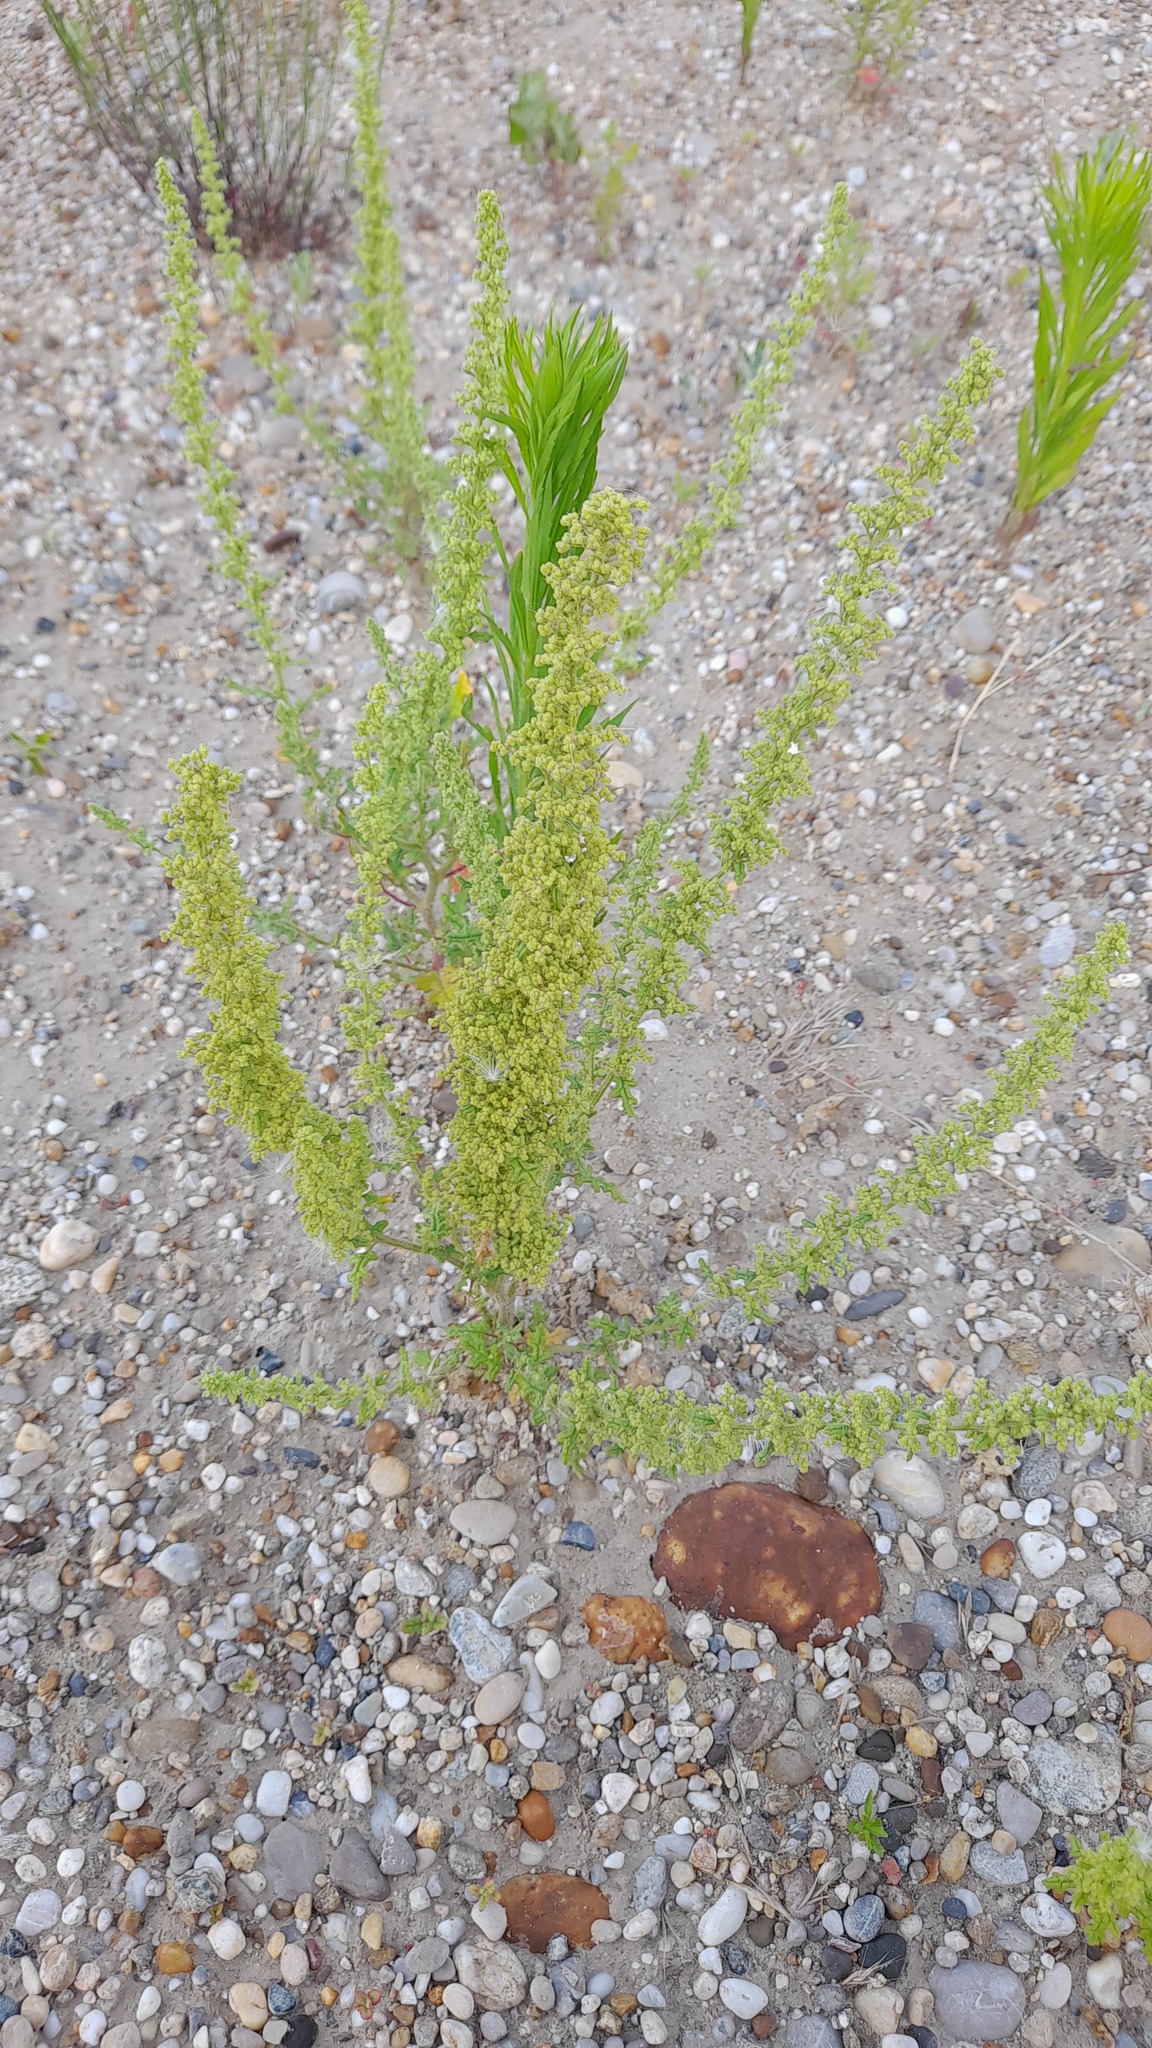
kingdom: Plantae
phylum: Tracheophyta
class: Magnoliopsida
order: Caryophyllales
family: Amaranthaceae
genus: Dysphania
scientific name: Dysphania botrys
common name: Feather-geranium
